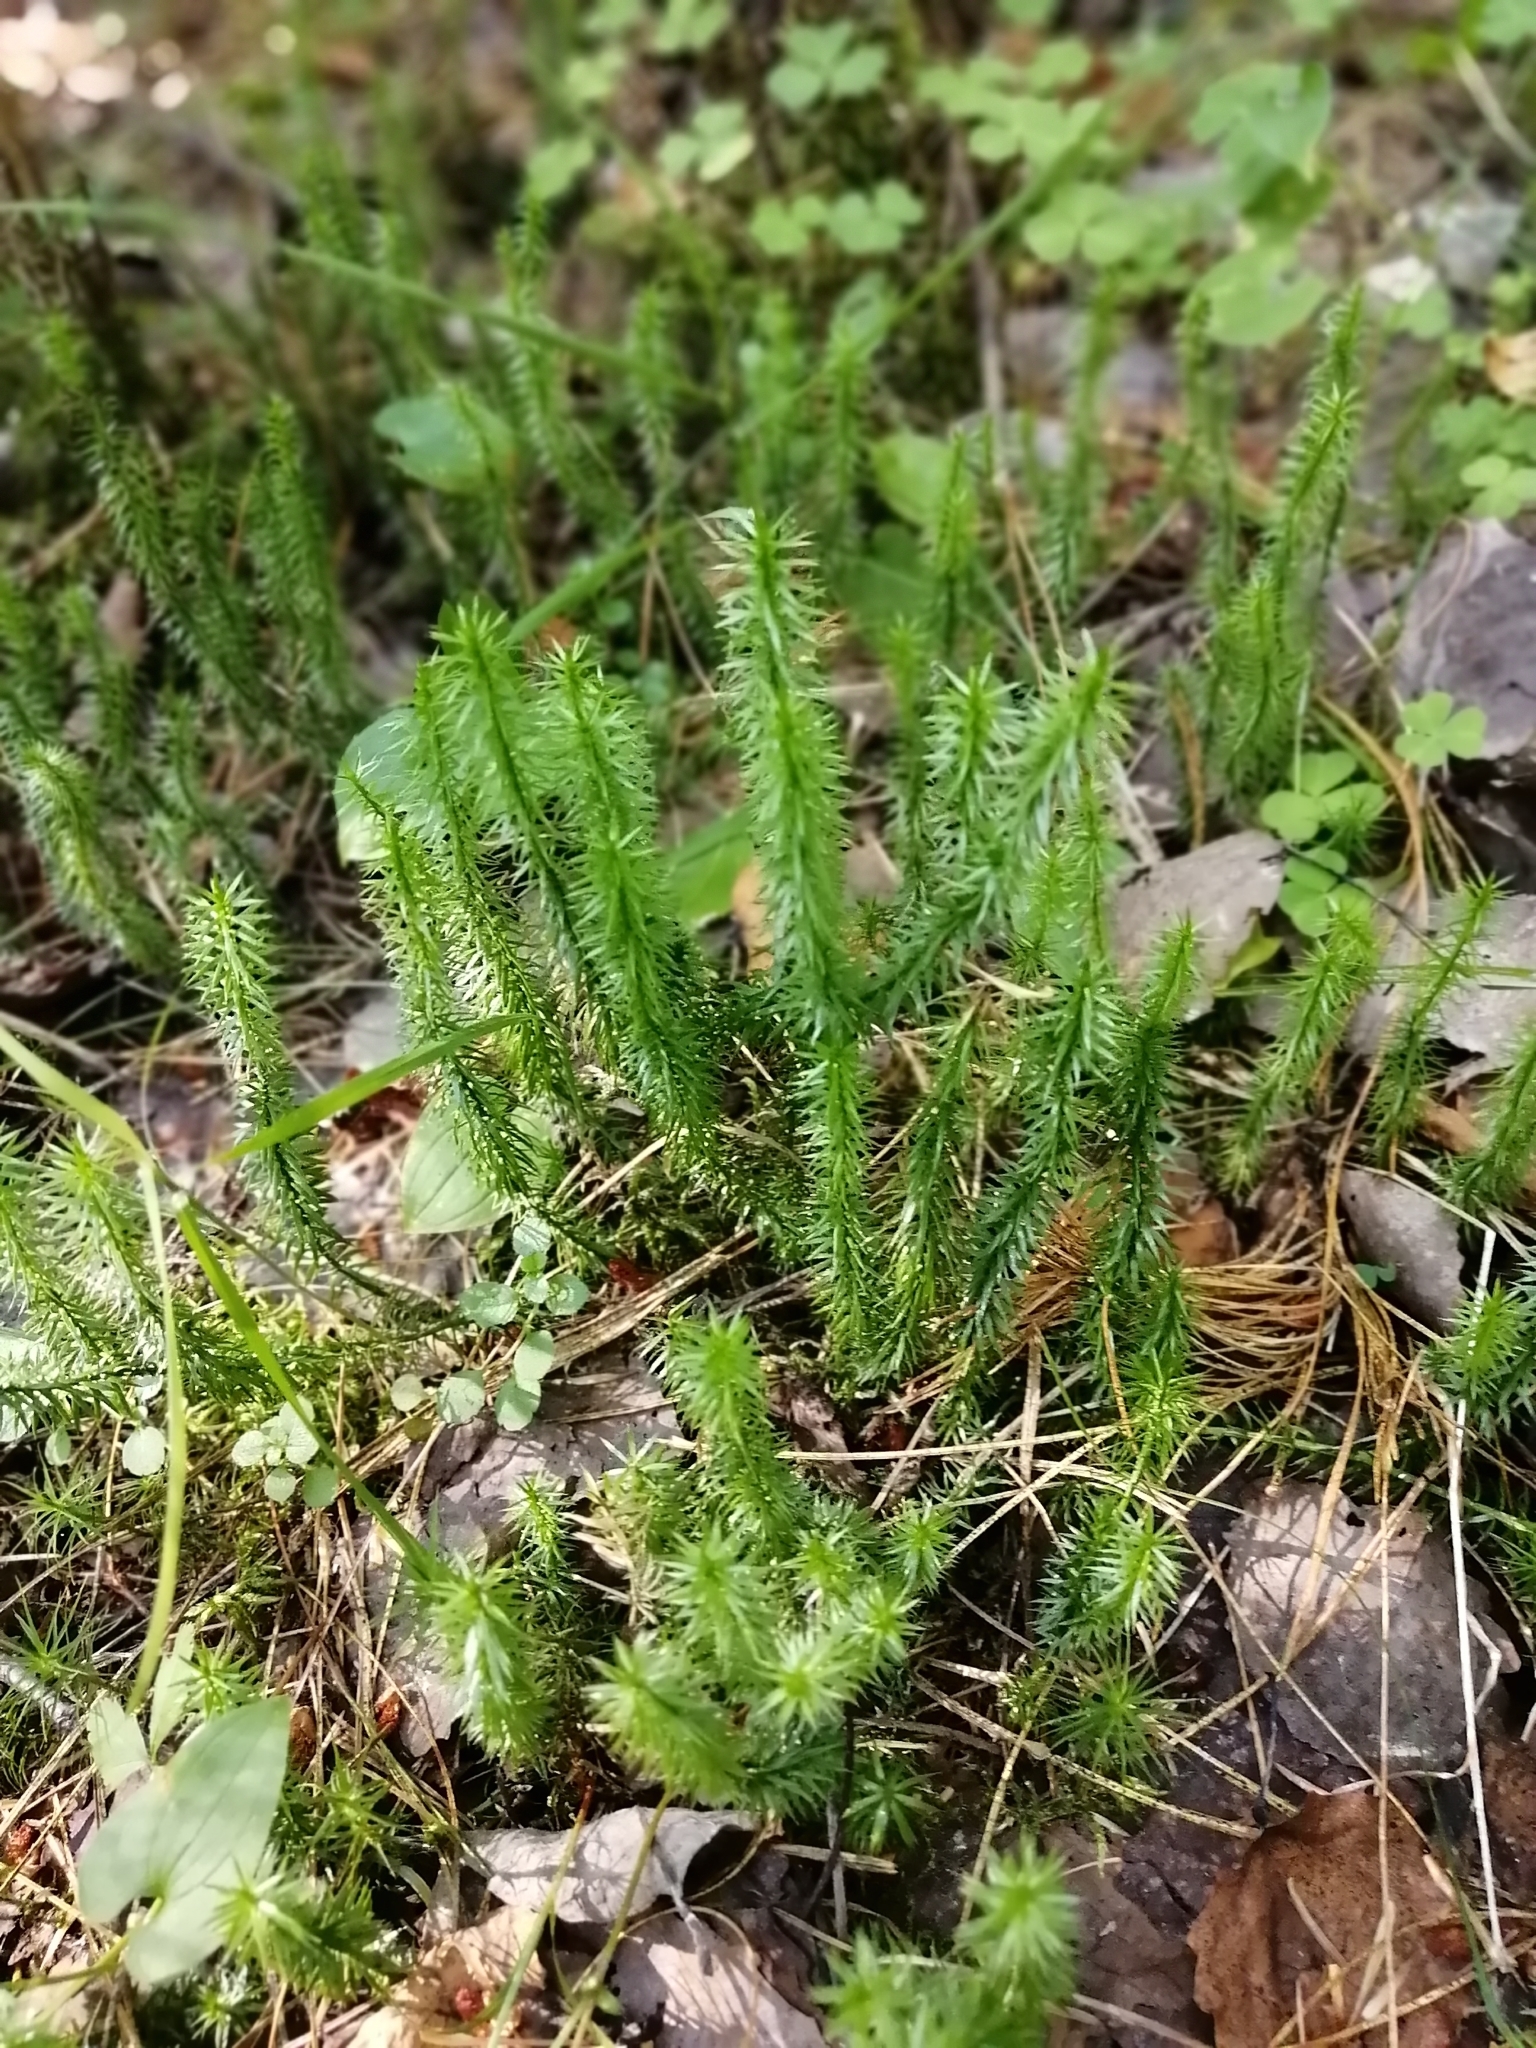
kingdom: Plantae
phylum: Tracheophyta
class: Lycopodiopsida
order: Lycopodiales
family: Lycopodiaceae
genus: Spinulum
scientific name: Spinulum annotinum
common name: Interrupted club-moss
